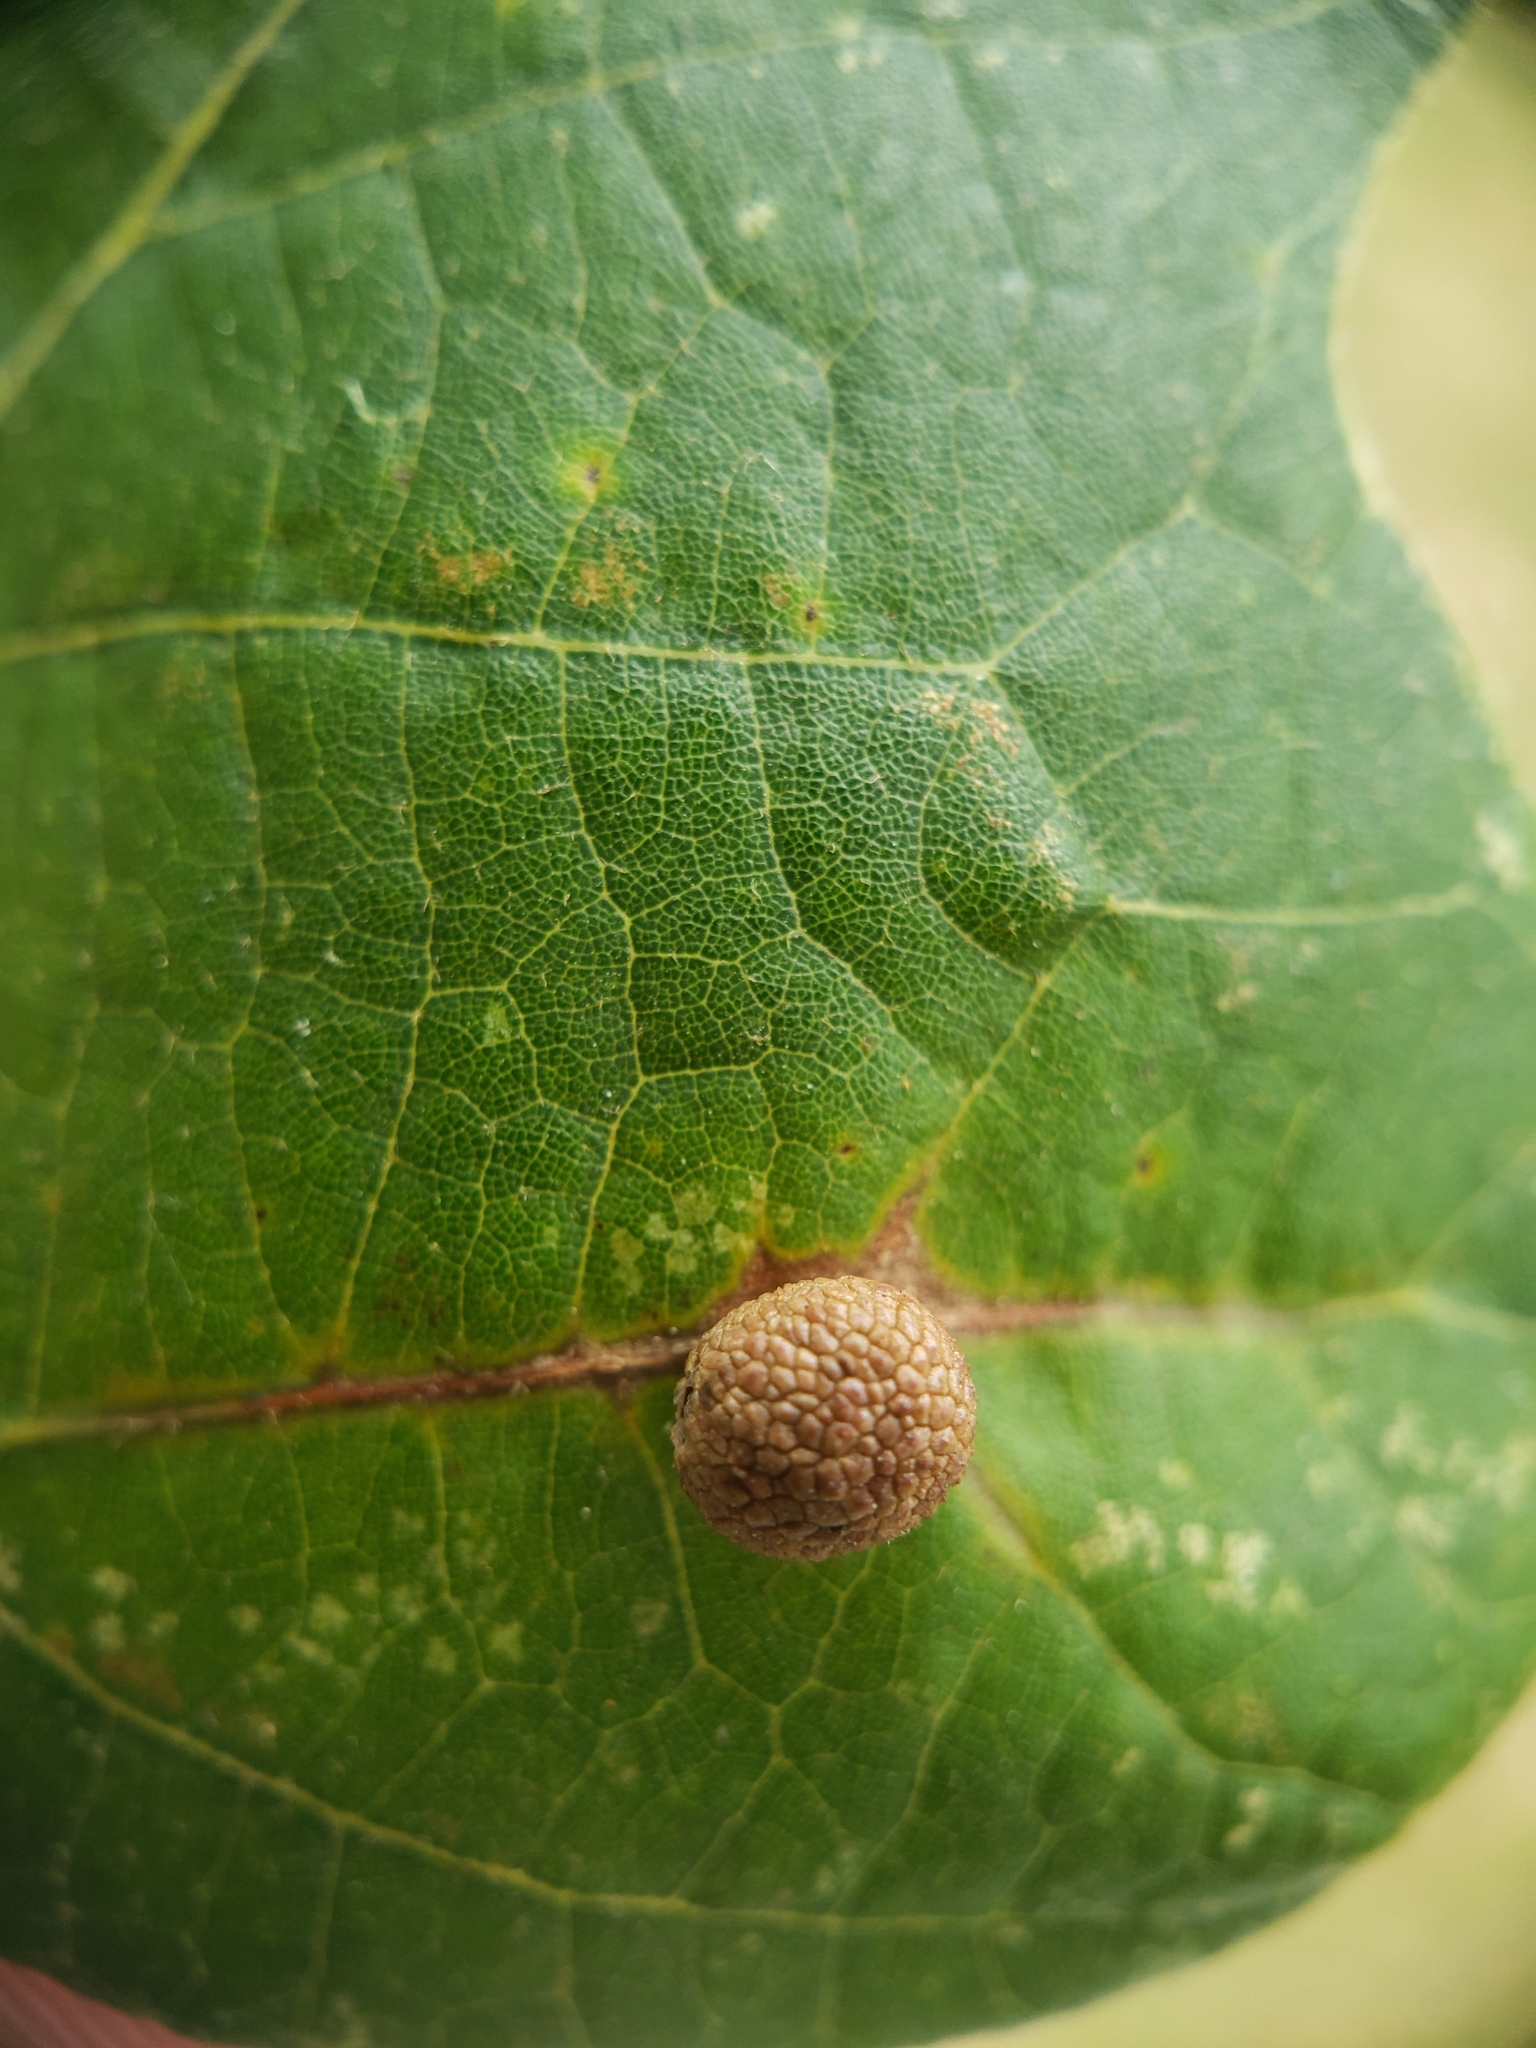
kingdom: Animalia
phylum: Arthropoda
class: Insecta
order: Hymenoptera
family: Cynipidae
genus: Acraspis
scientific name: Acraspis quercushirta
